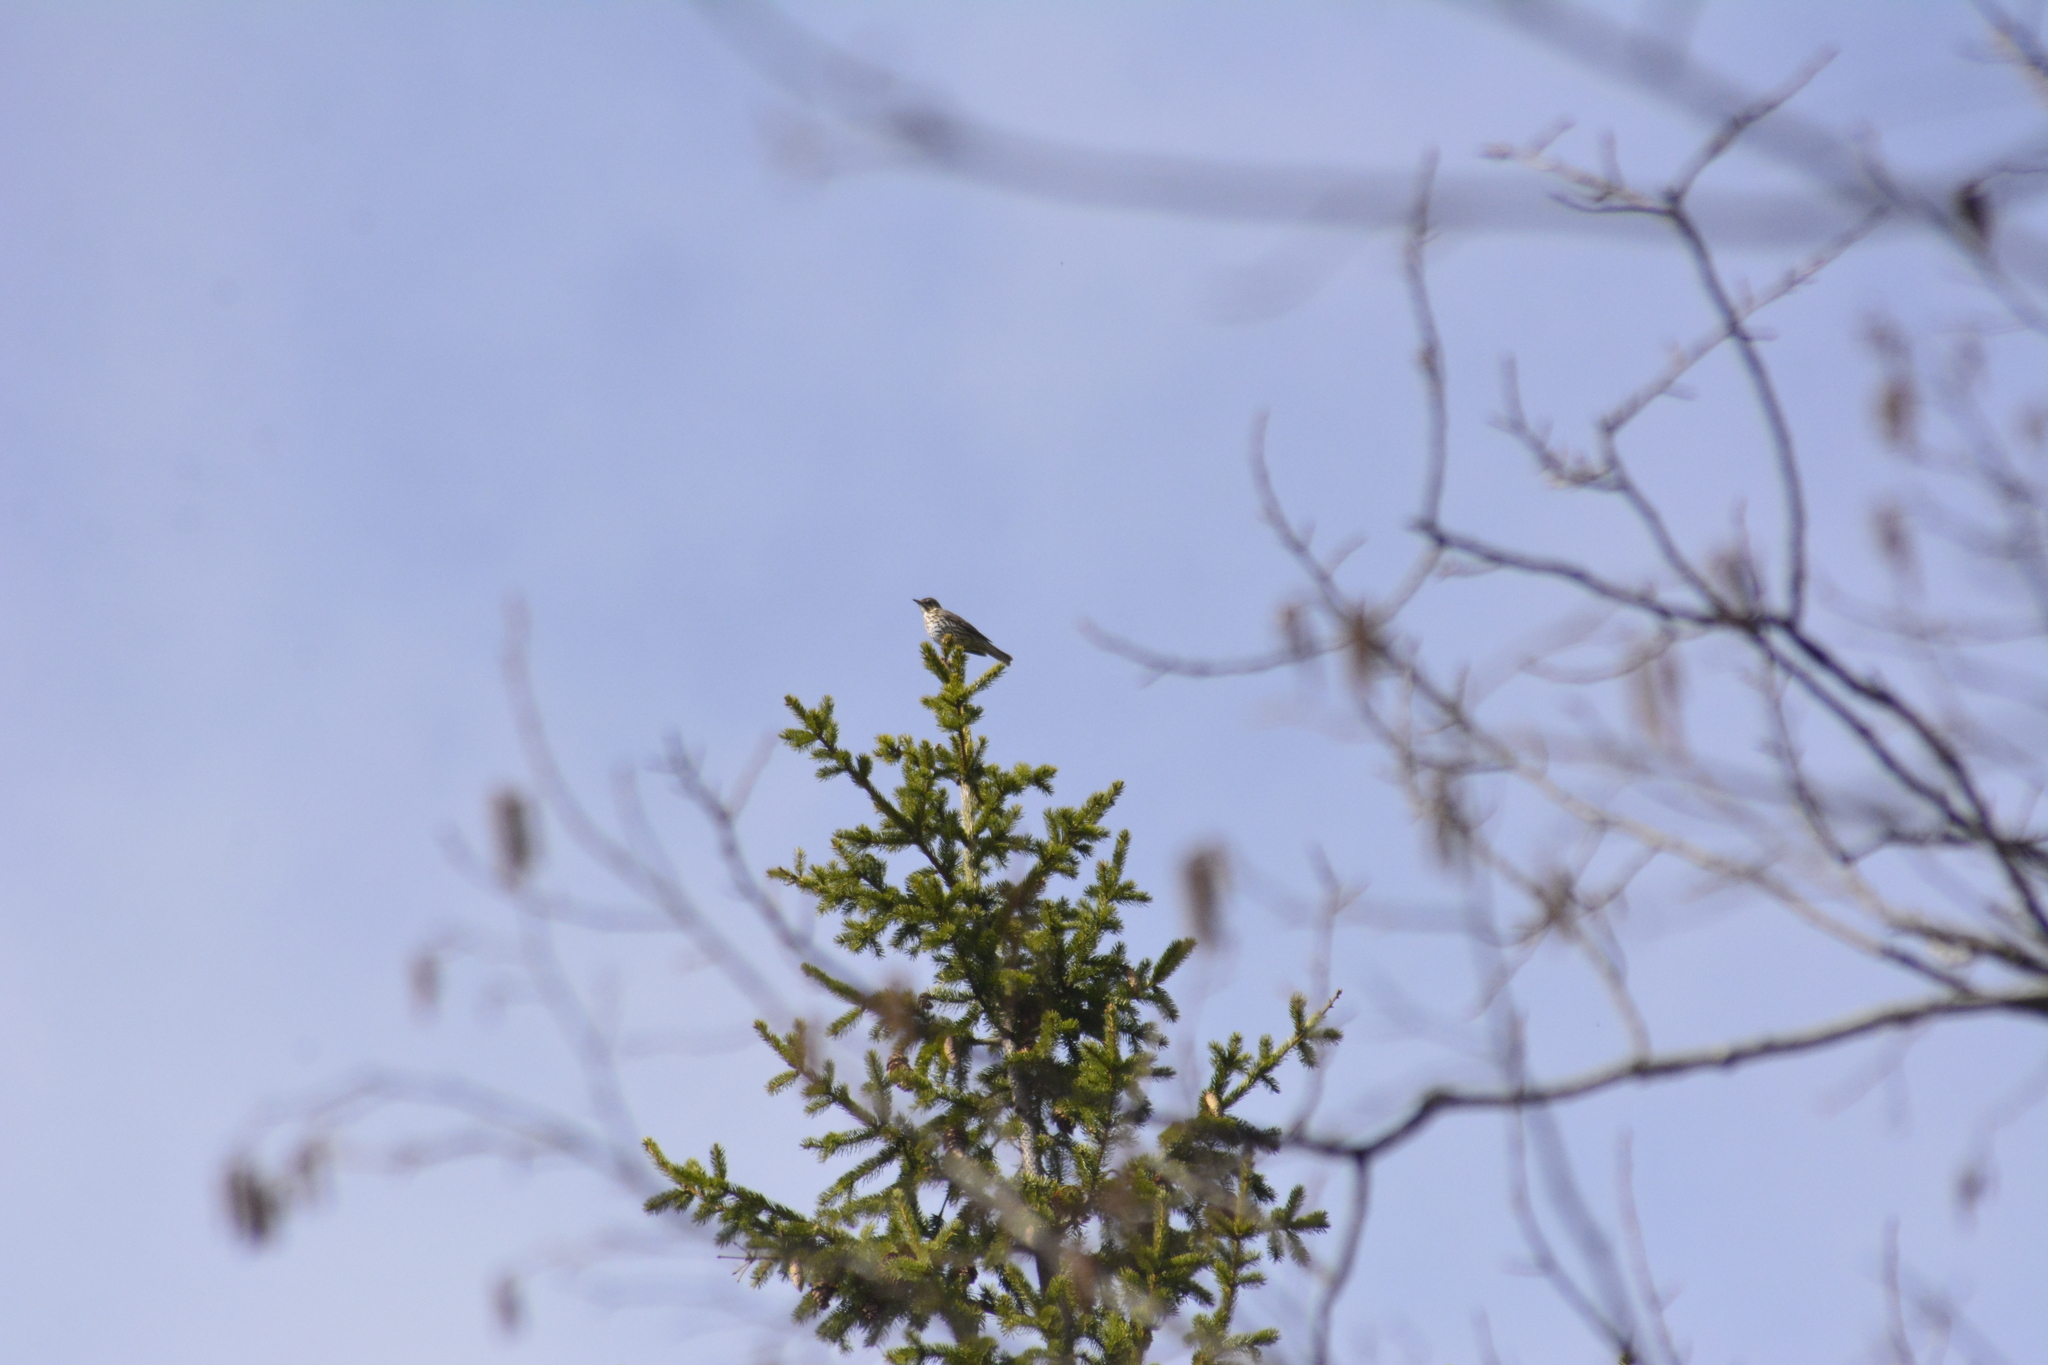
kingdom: Animalia
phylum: Chordata
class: Aves
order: Passeriformes
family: Turdidae
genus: Turdus
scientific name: Turdus philomelos
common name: Song thrush
